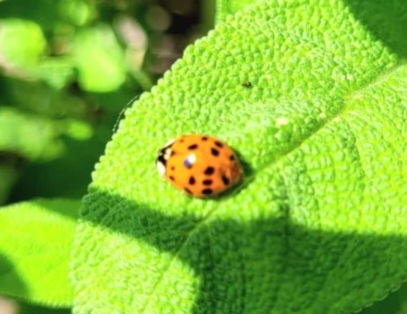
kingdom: Animalia
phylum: Arthropoda
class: Insecta
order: Coleoptera
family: Coccinellidae
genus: Harmonia
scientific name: Harmonia axyridis
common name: Harlequin ladybird
